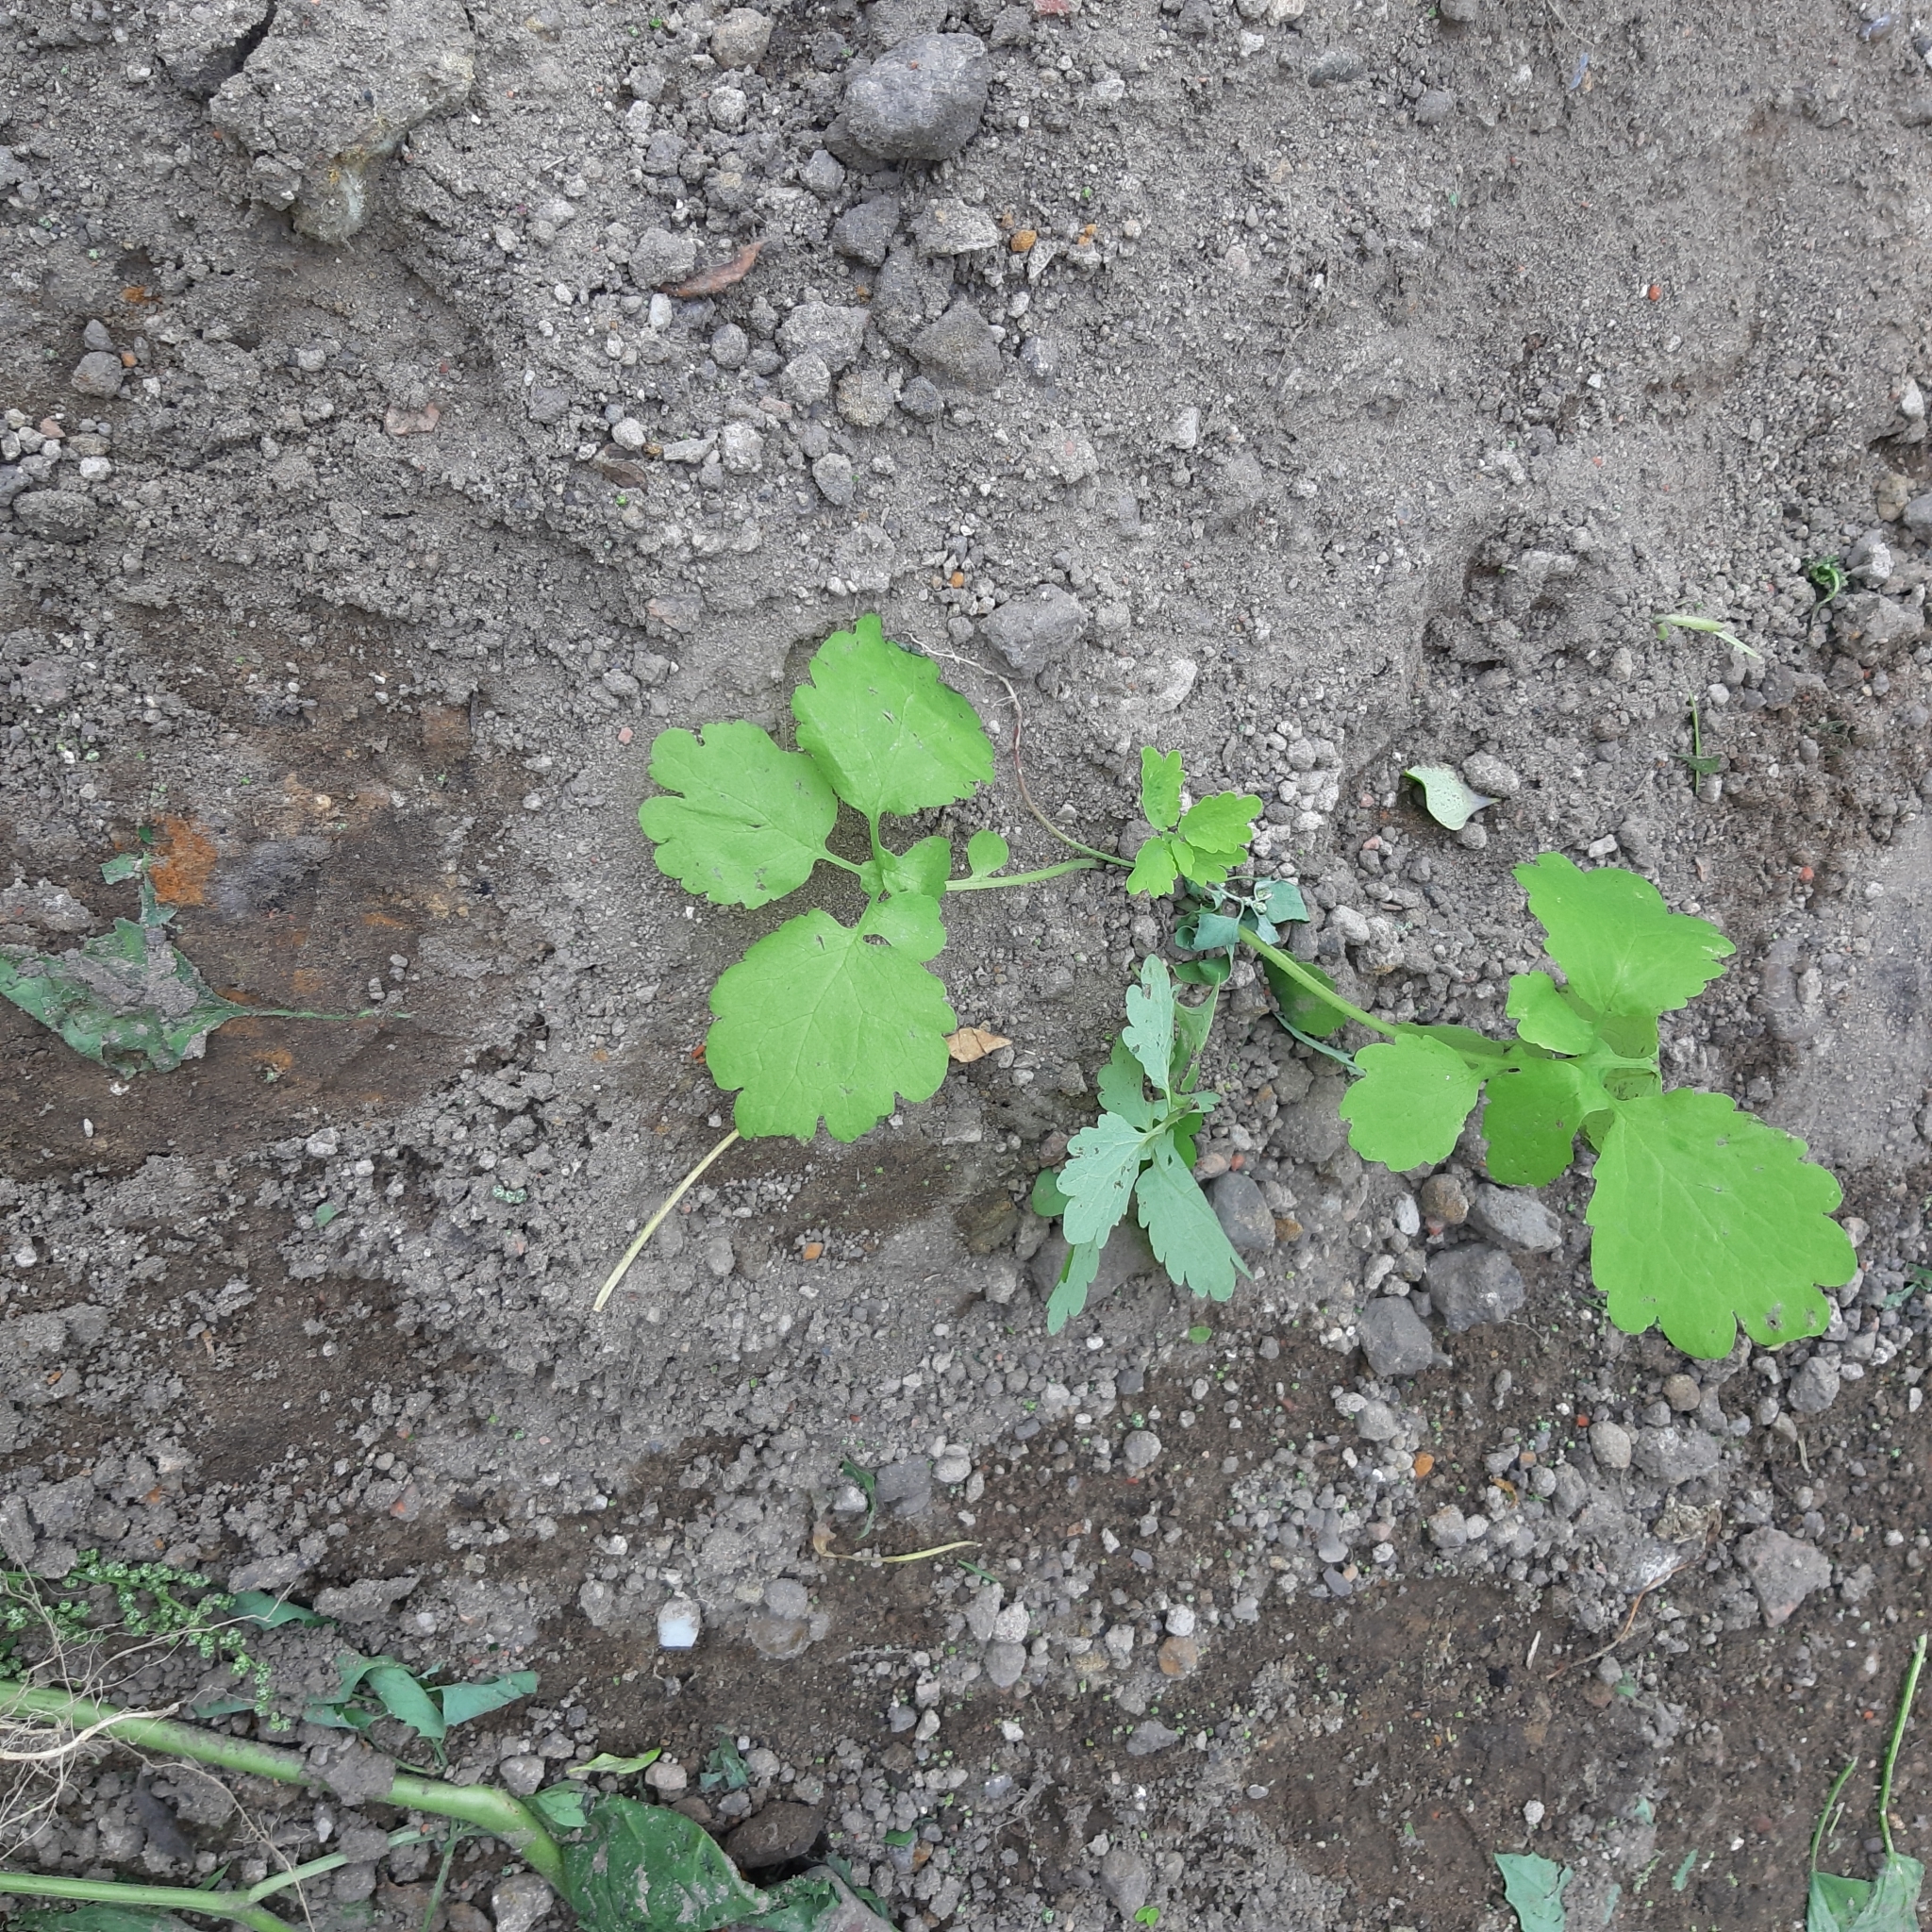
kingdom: Plantae
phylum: Tracheophyta
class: Magnoliopsida
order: Ranunculales
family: Papaveraceae
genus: Chelidonium
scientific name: Chelidonium majus
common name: Greater celandine
